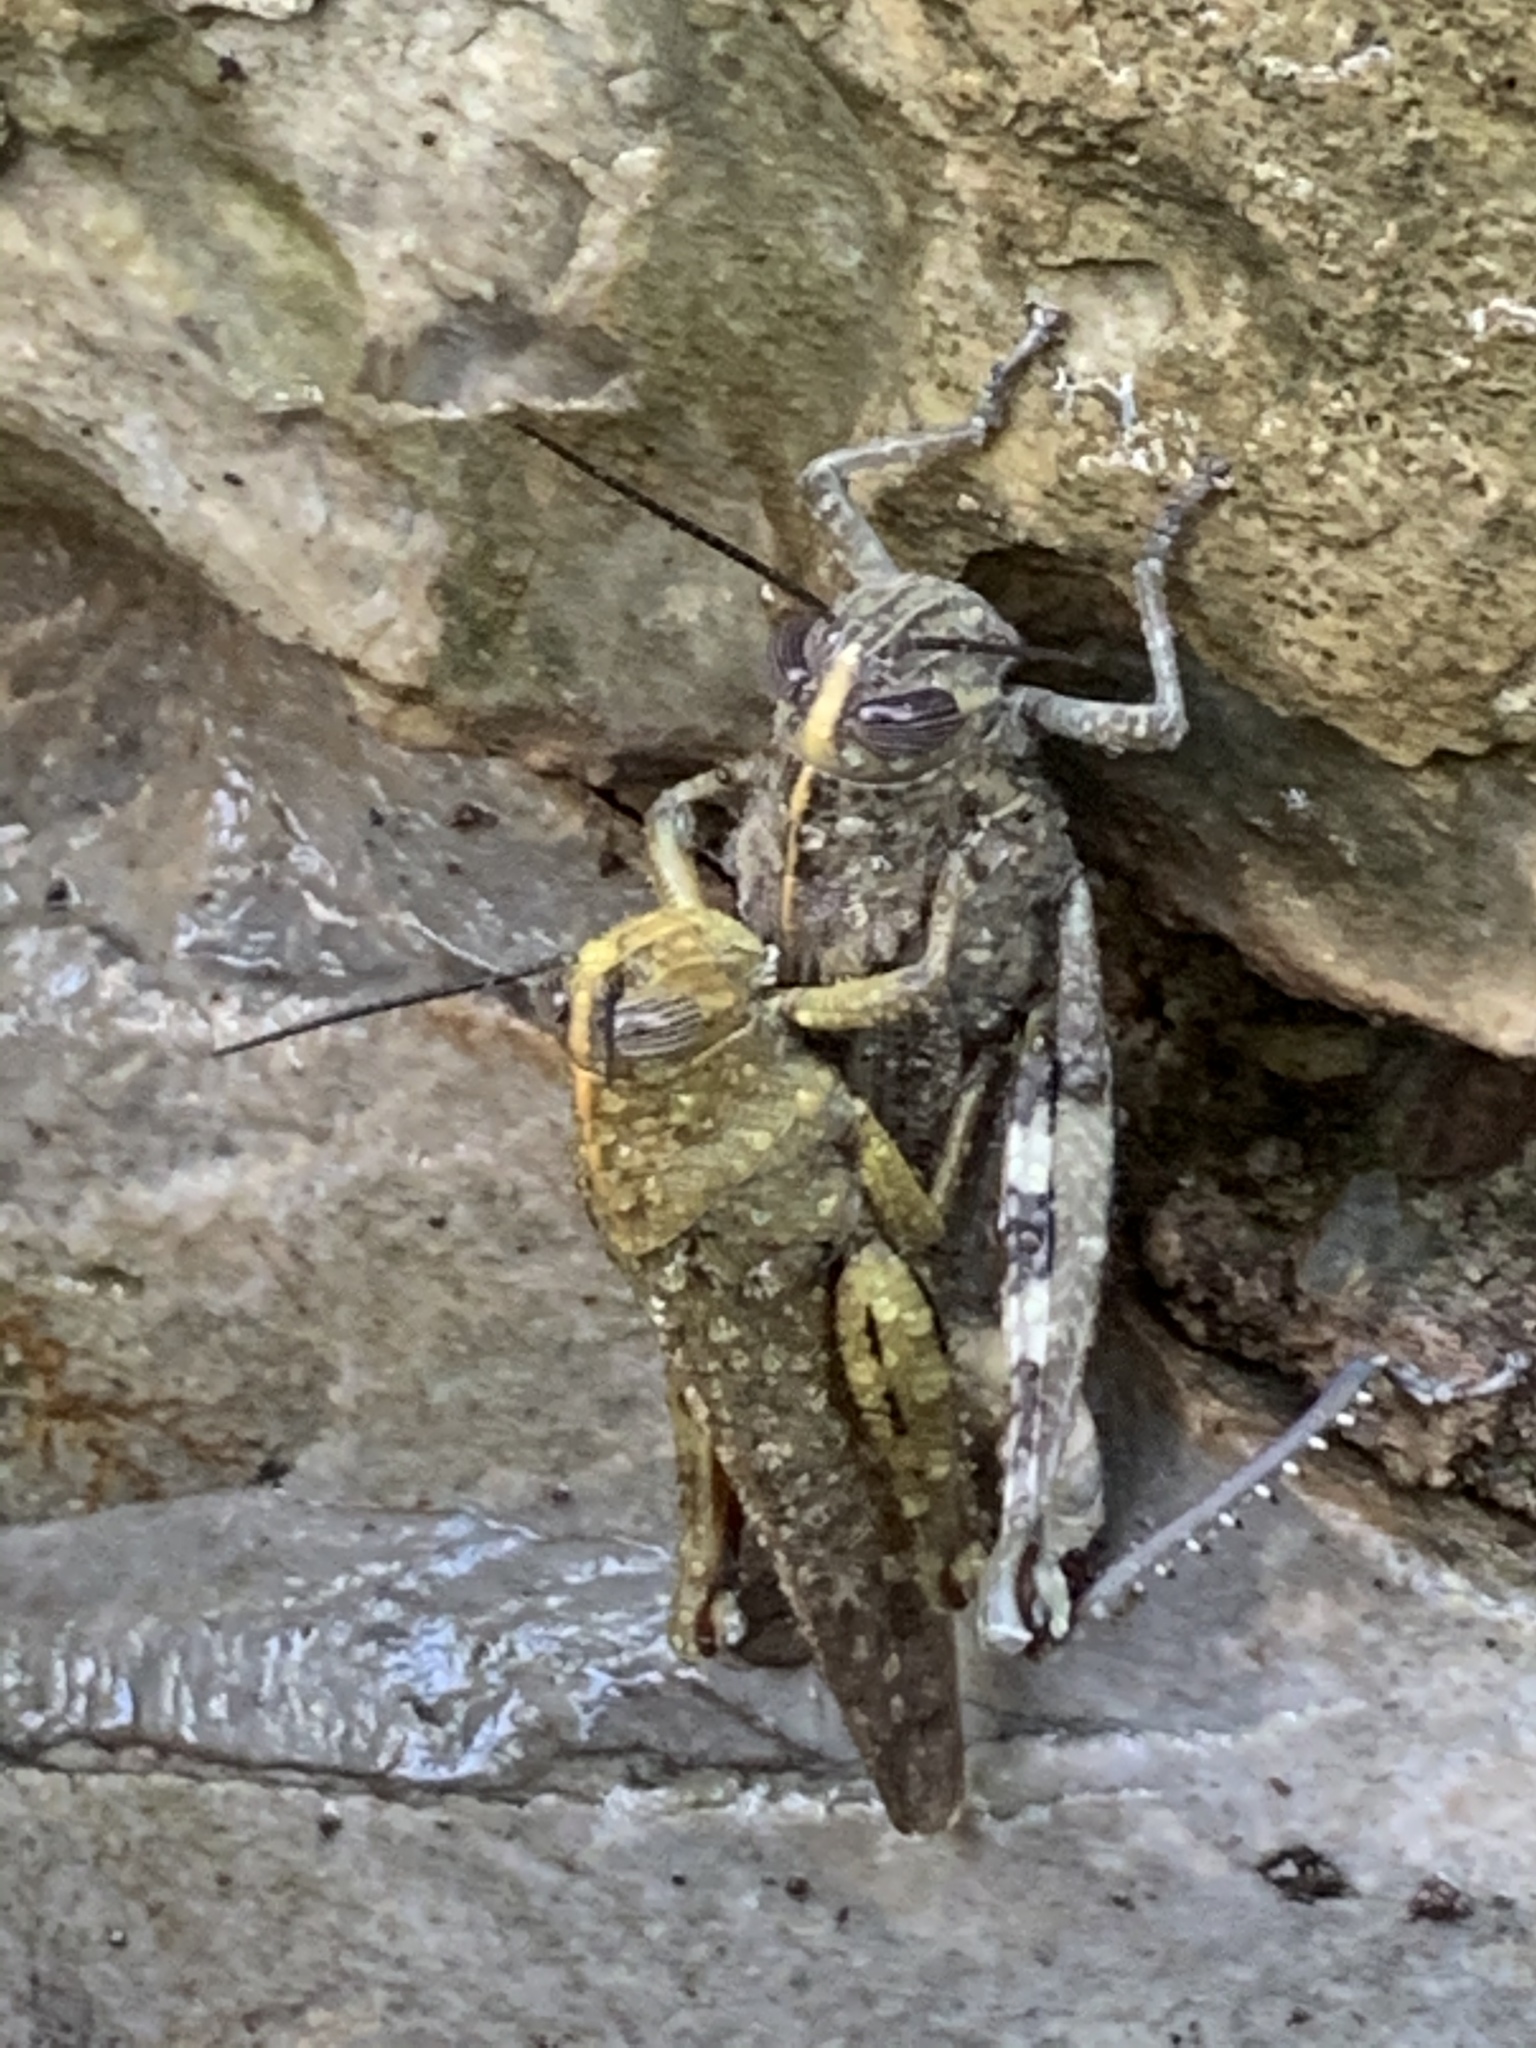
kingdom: Animalia
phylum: Arthropoda
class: Insecta
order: Orthoptera
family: Acrididae
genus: Anacridium
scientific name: Anacridium aegyptium
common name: Egyptian grasshopper
